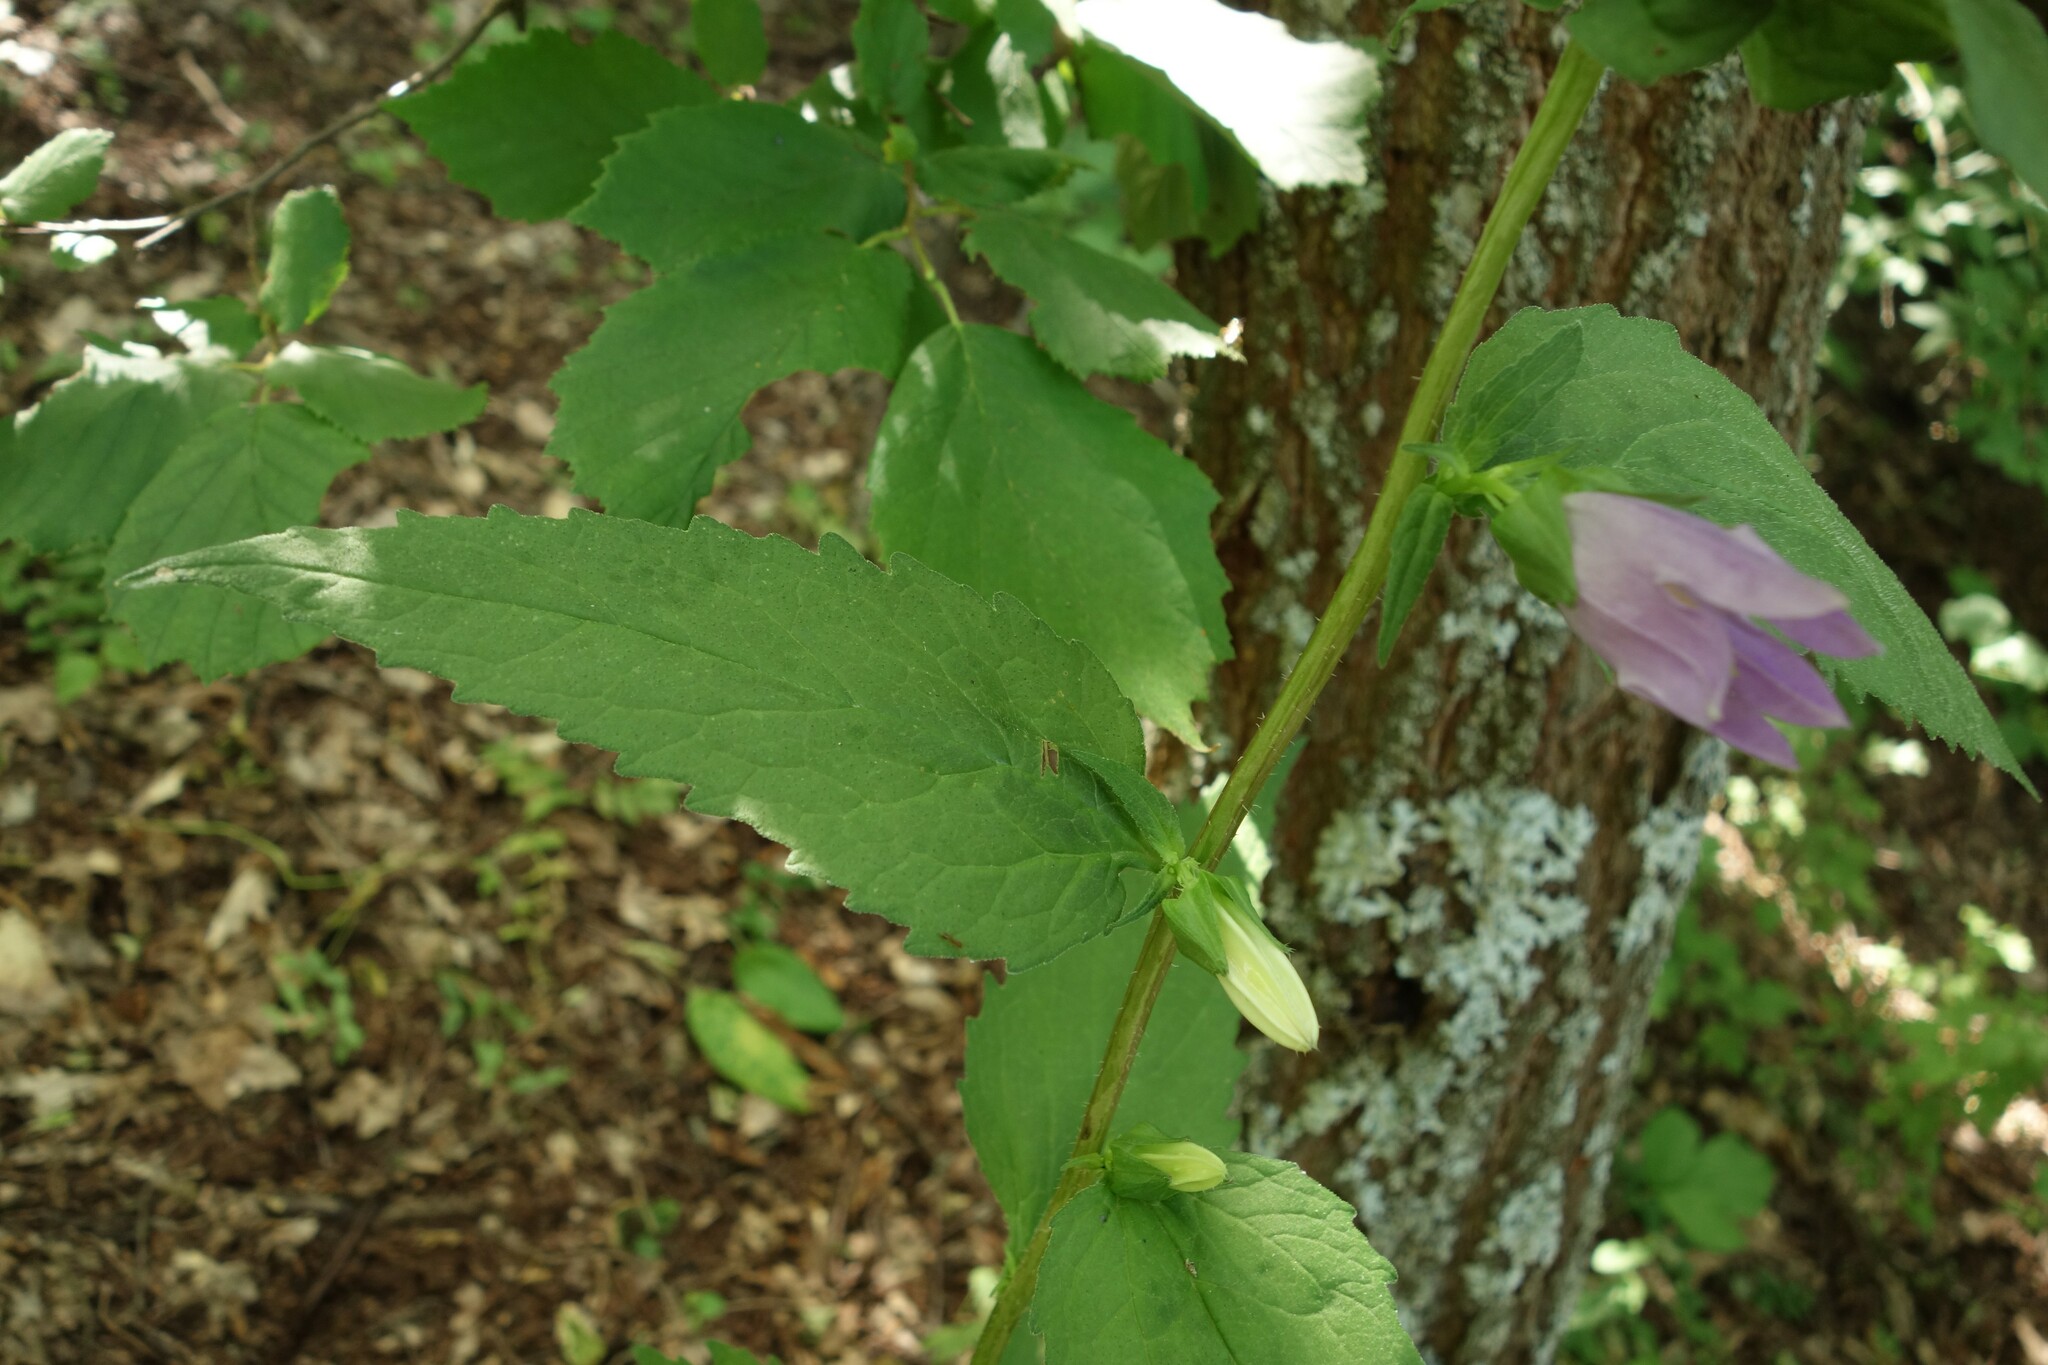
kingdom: Plantae
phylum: Tracheophyta
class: Magnoliopsida
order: Asterales
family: Campanulaceae
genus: Campanula
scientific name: Campanula trachelium
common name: Nettle-leaved bellflower
